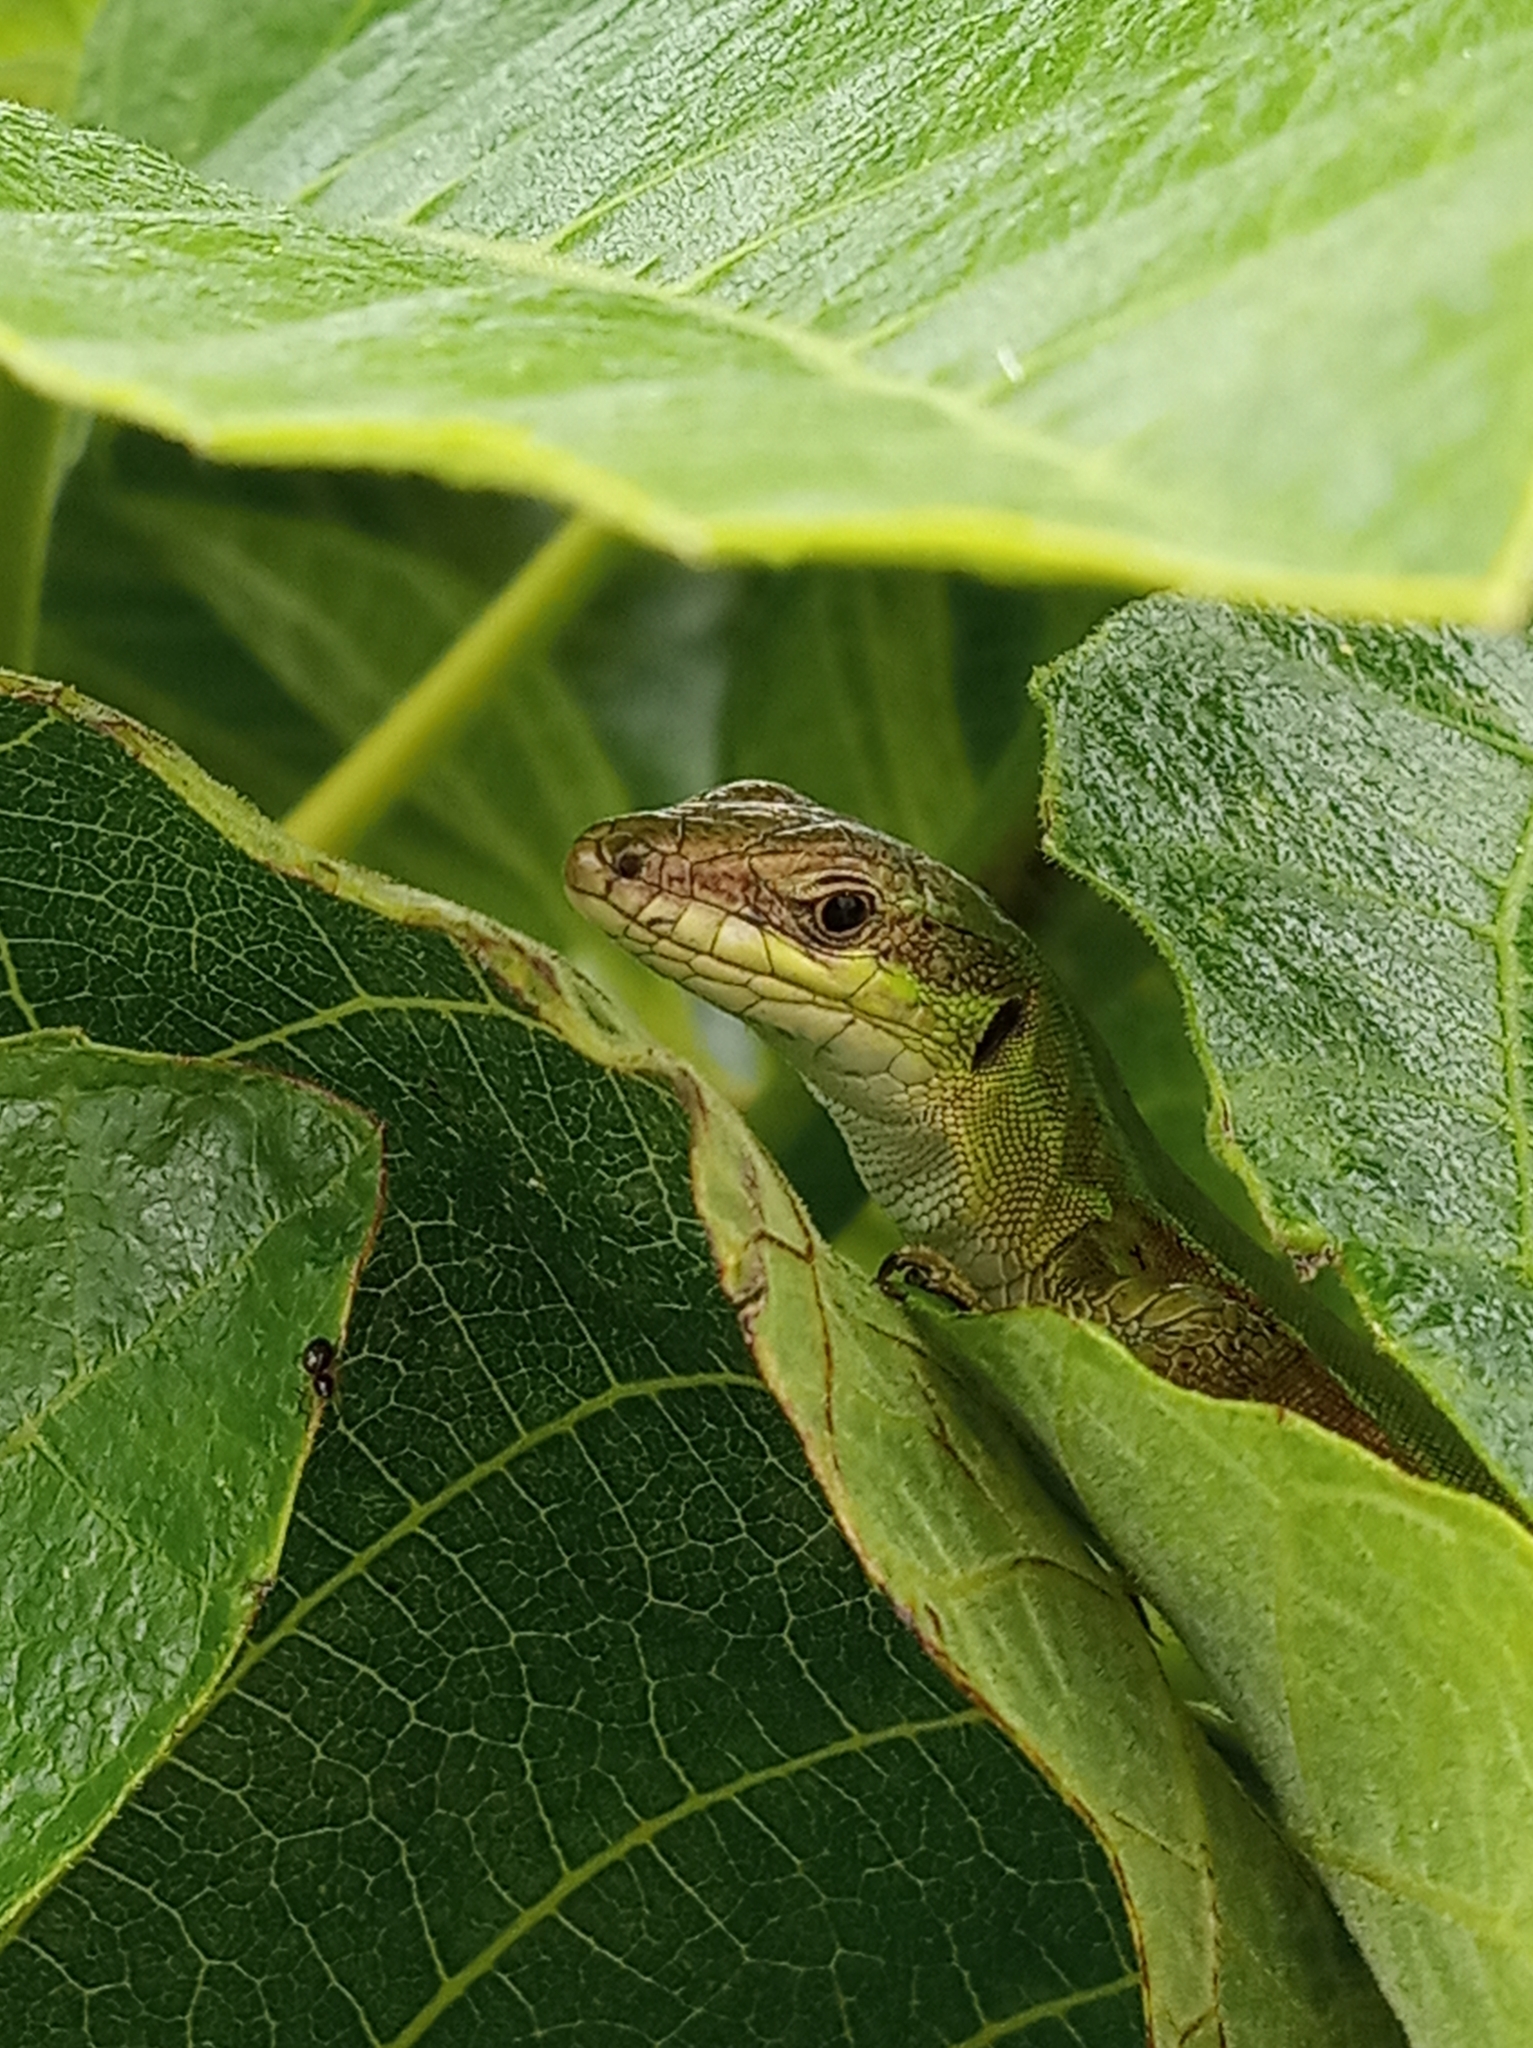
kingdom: Animalia
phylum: Chordata
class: Squamata
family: Lacertidae
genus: Podarcis
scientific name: Podarcis siculus
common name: Italian wall lizard
